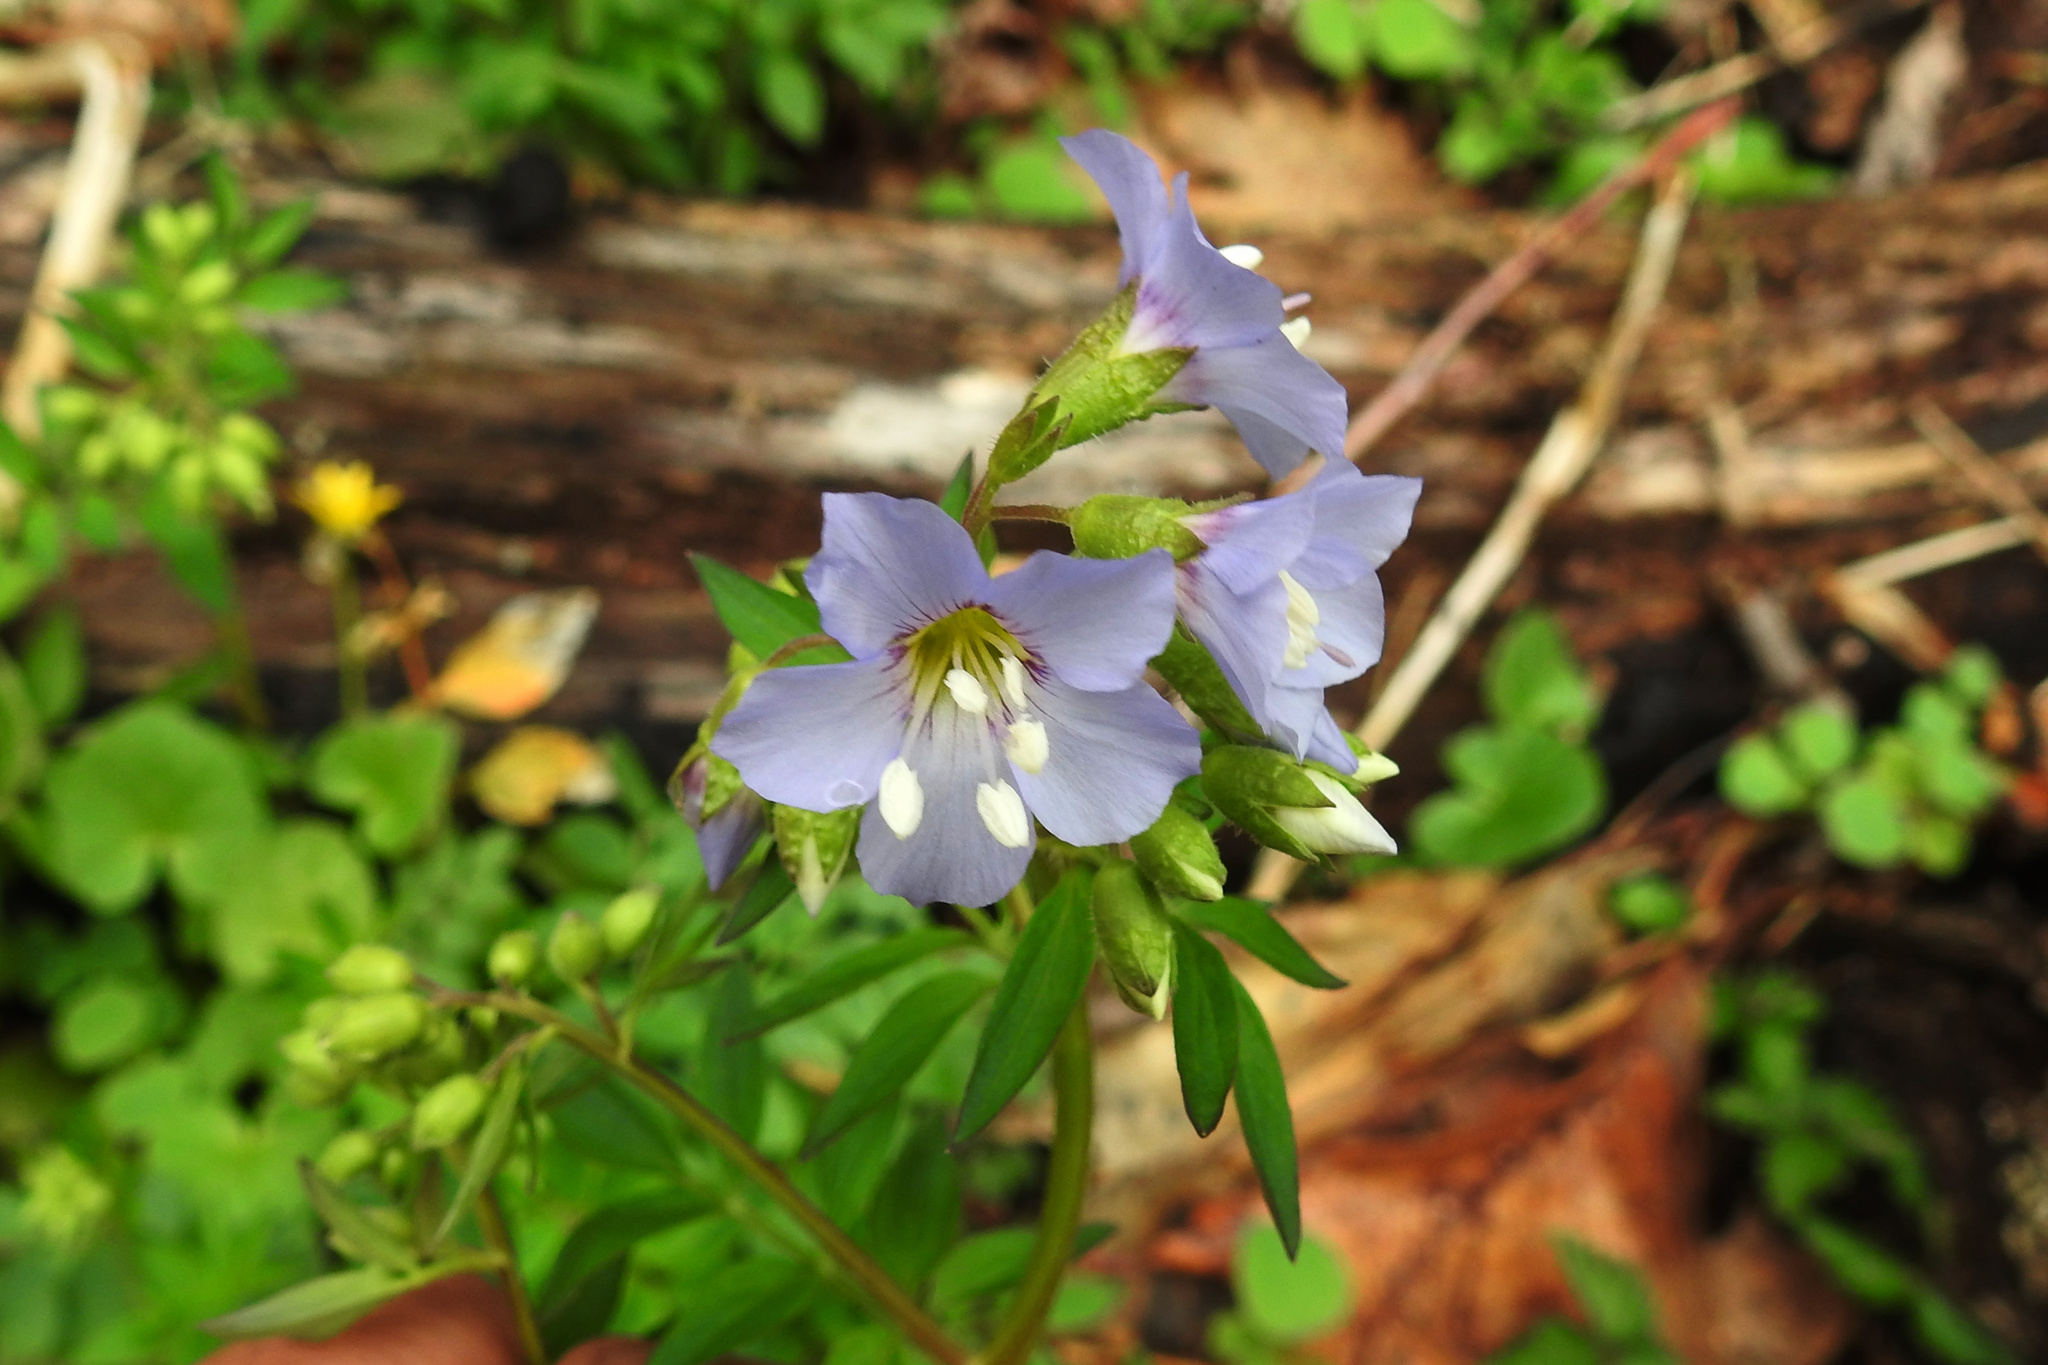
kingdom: Plantae
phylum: Tracheophyta
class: Magnoliopsida
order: Ericales
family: Polemoniaceae
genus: Polemonium
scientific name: Polemonium reptans
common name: Creeping jacob's-ladder
